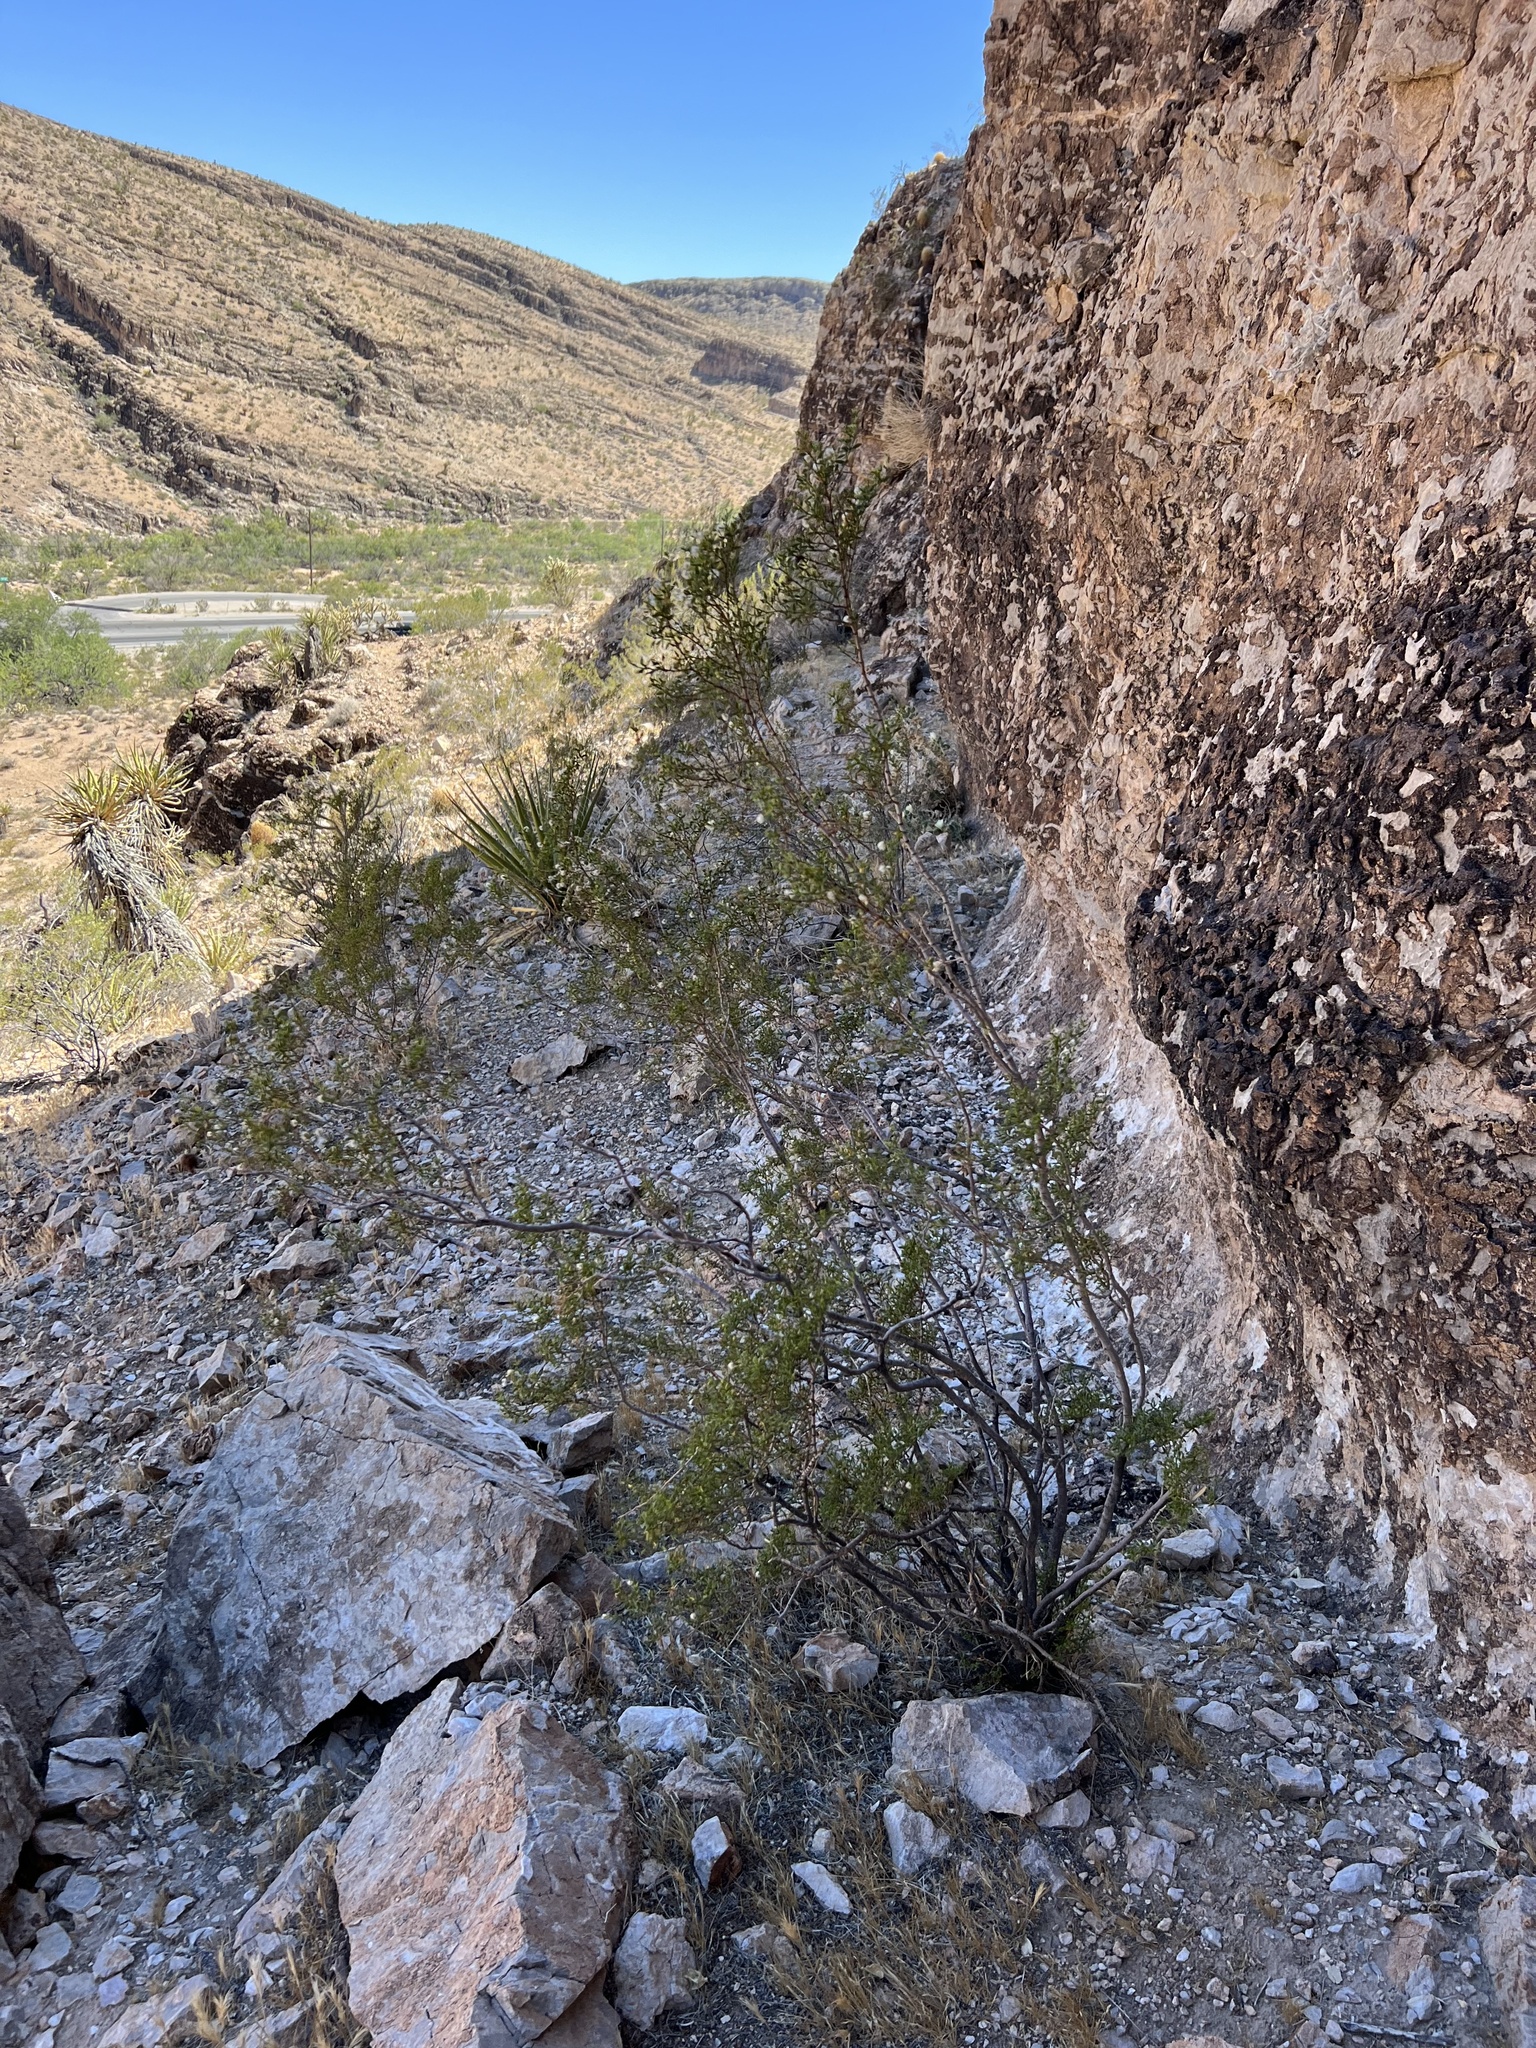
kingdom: Plantae
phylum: Tracheophyta
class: Magnoliopsida
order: Zygophyllales
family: Zygophyllaceae
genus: Larrea
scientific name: Larrea tridentata
